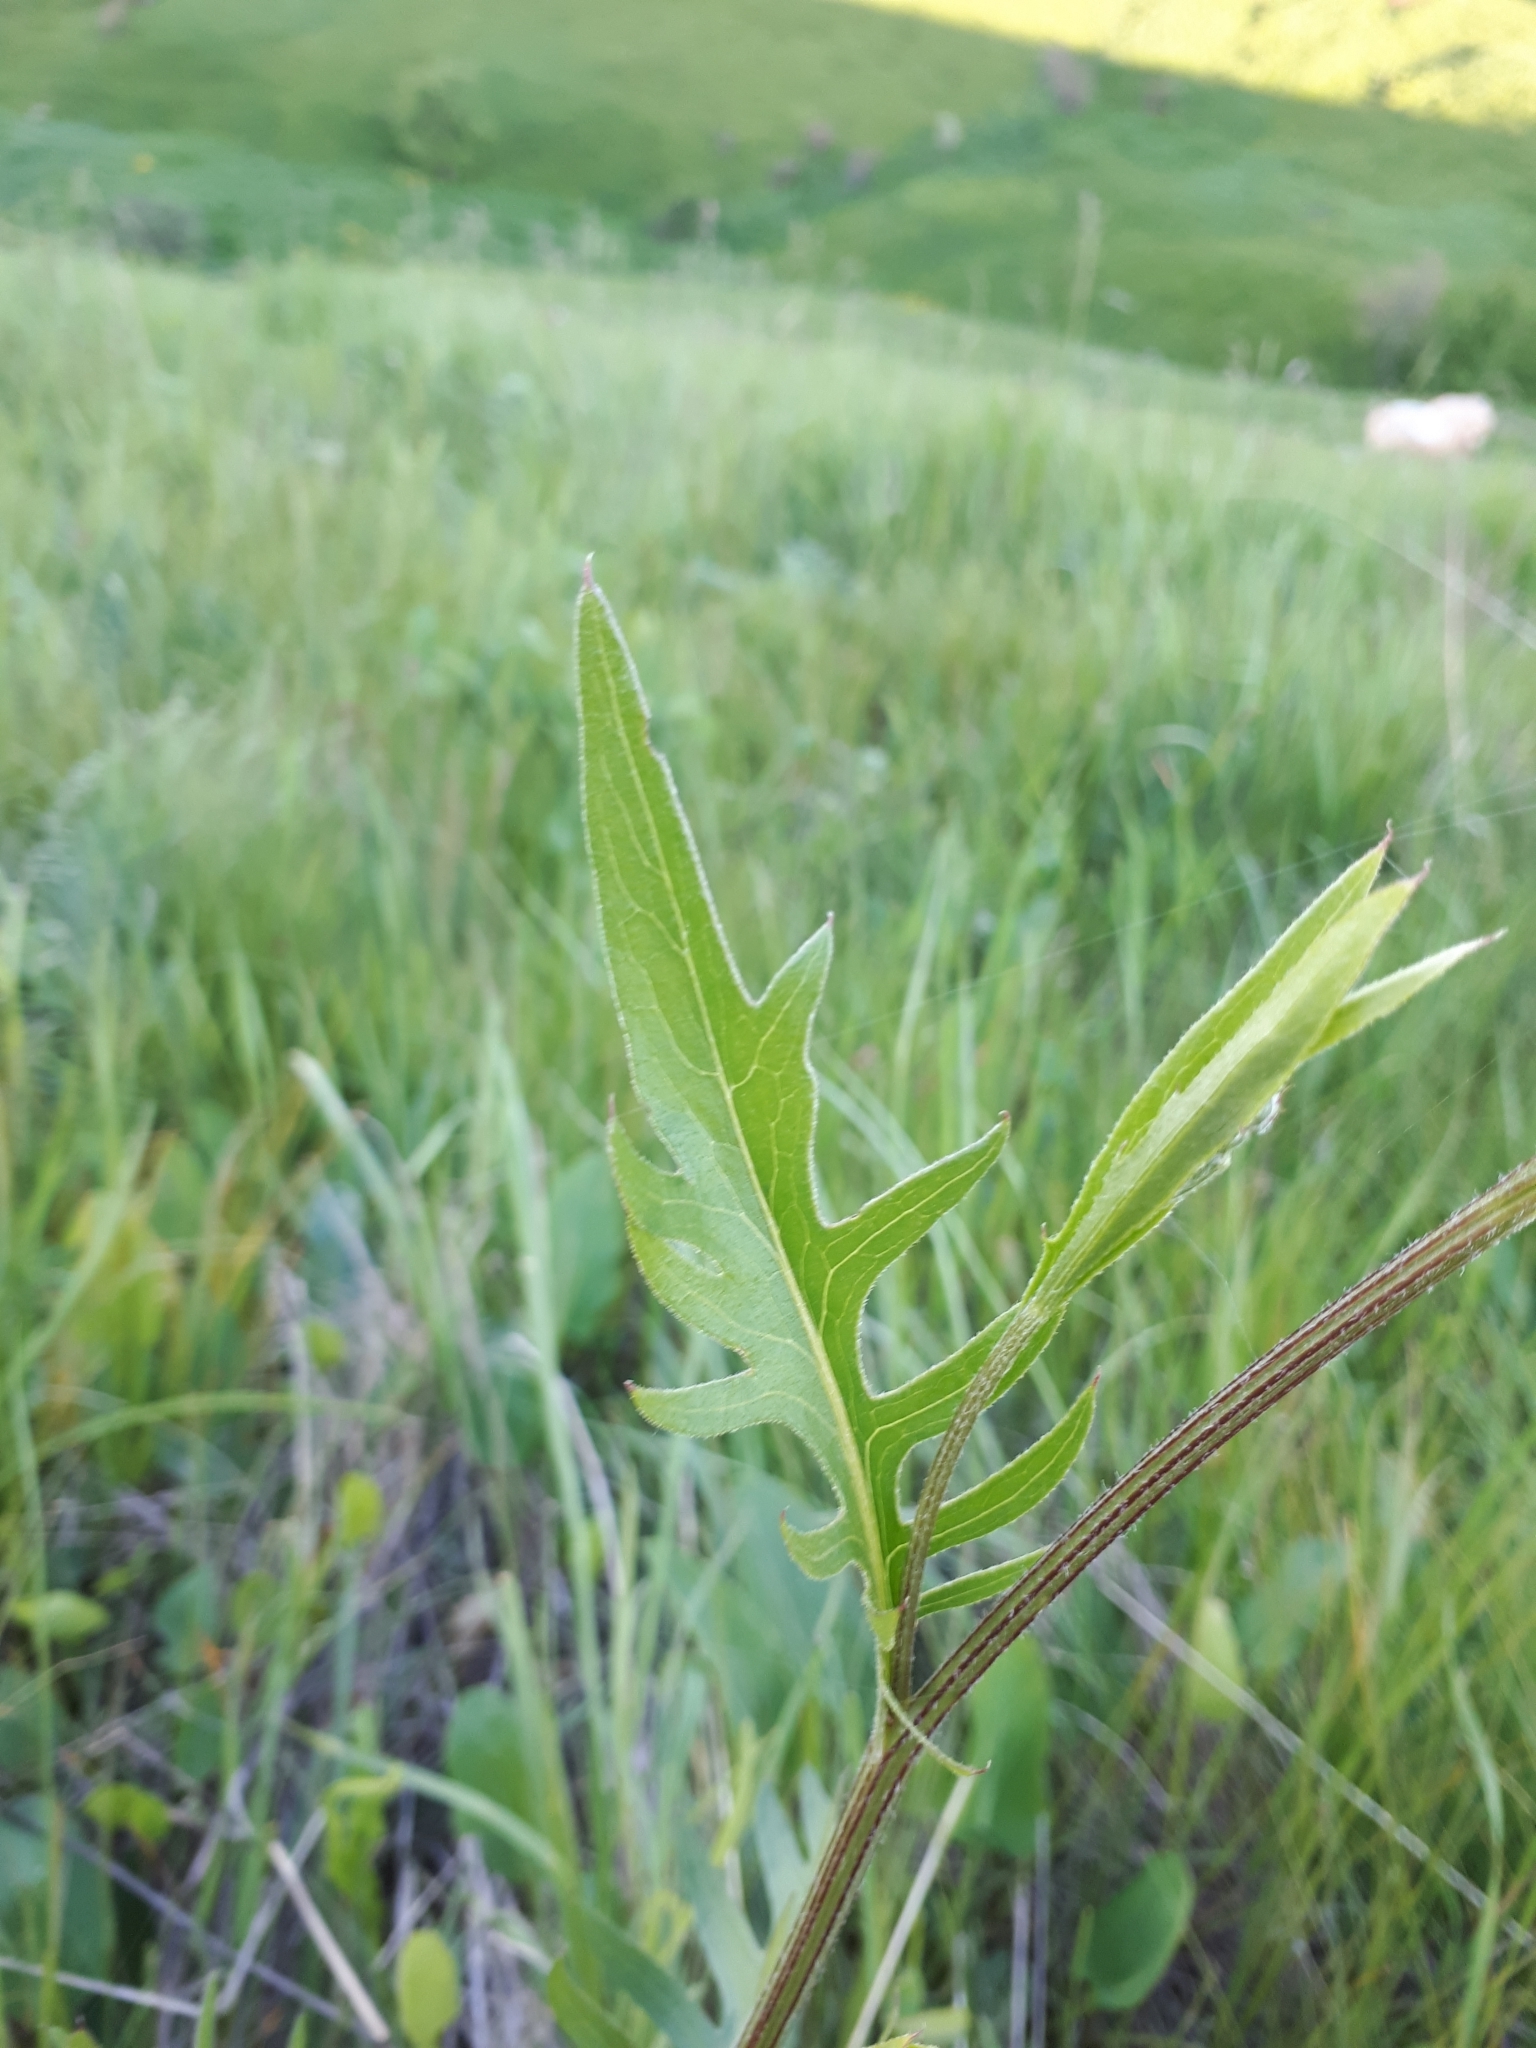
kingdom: Plantae
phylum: Tracheophyta
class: Magnoliopsida
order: Asterales
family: Asteraceae
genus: Klasea
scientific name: Klasea radiata
